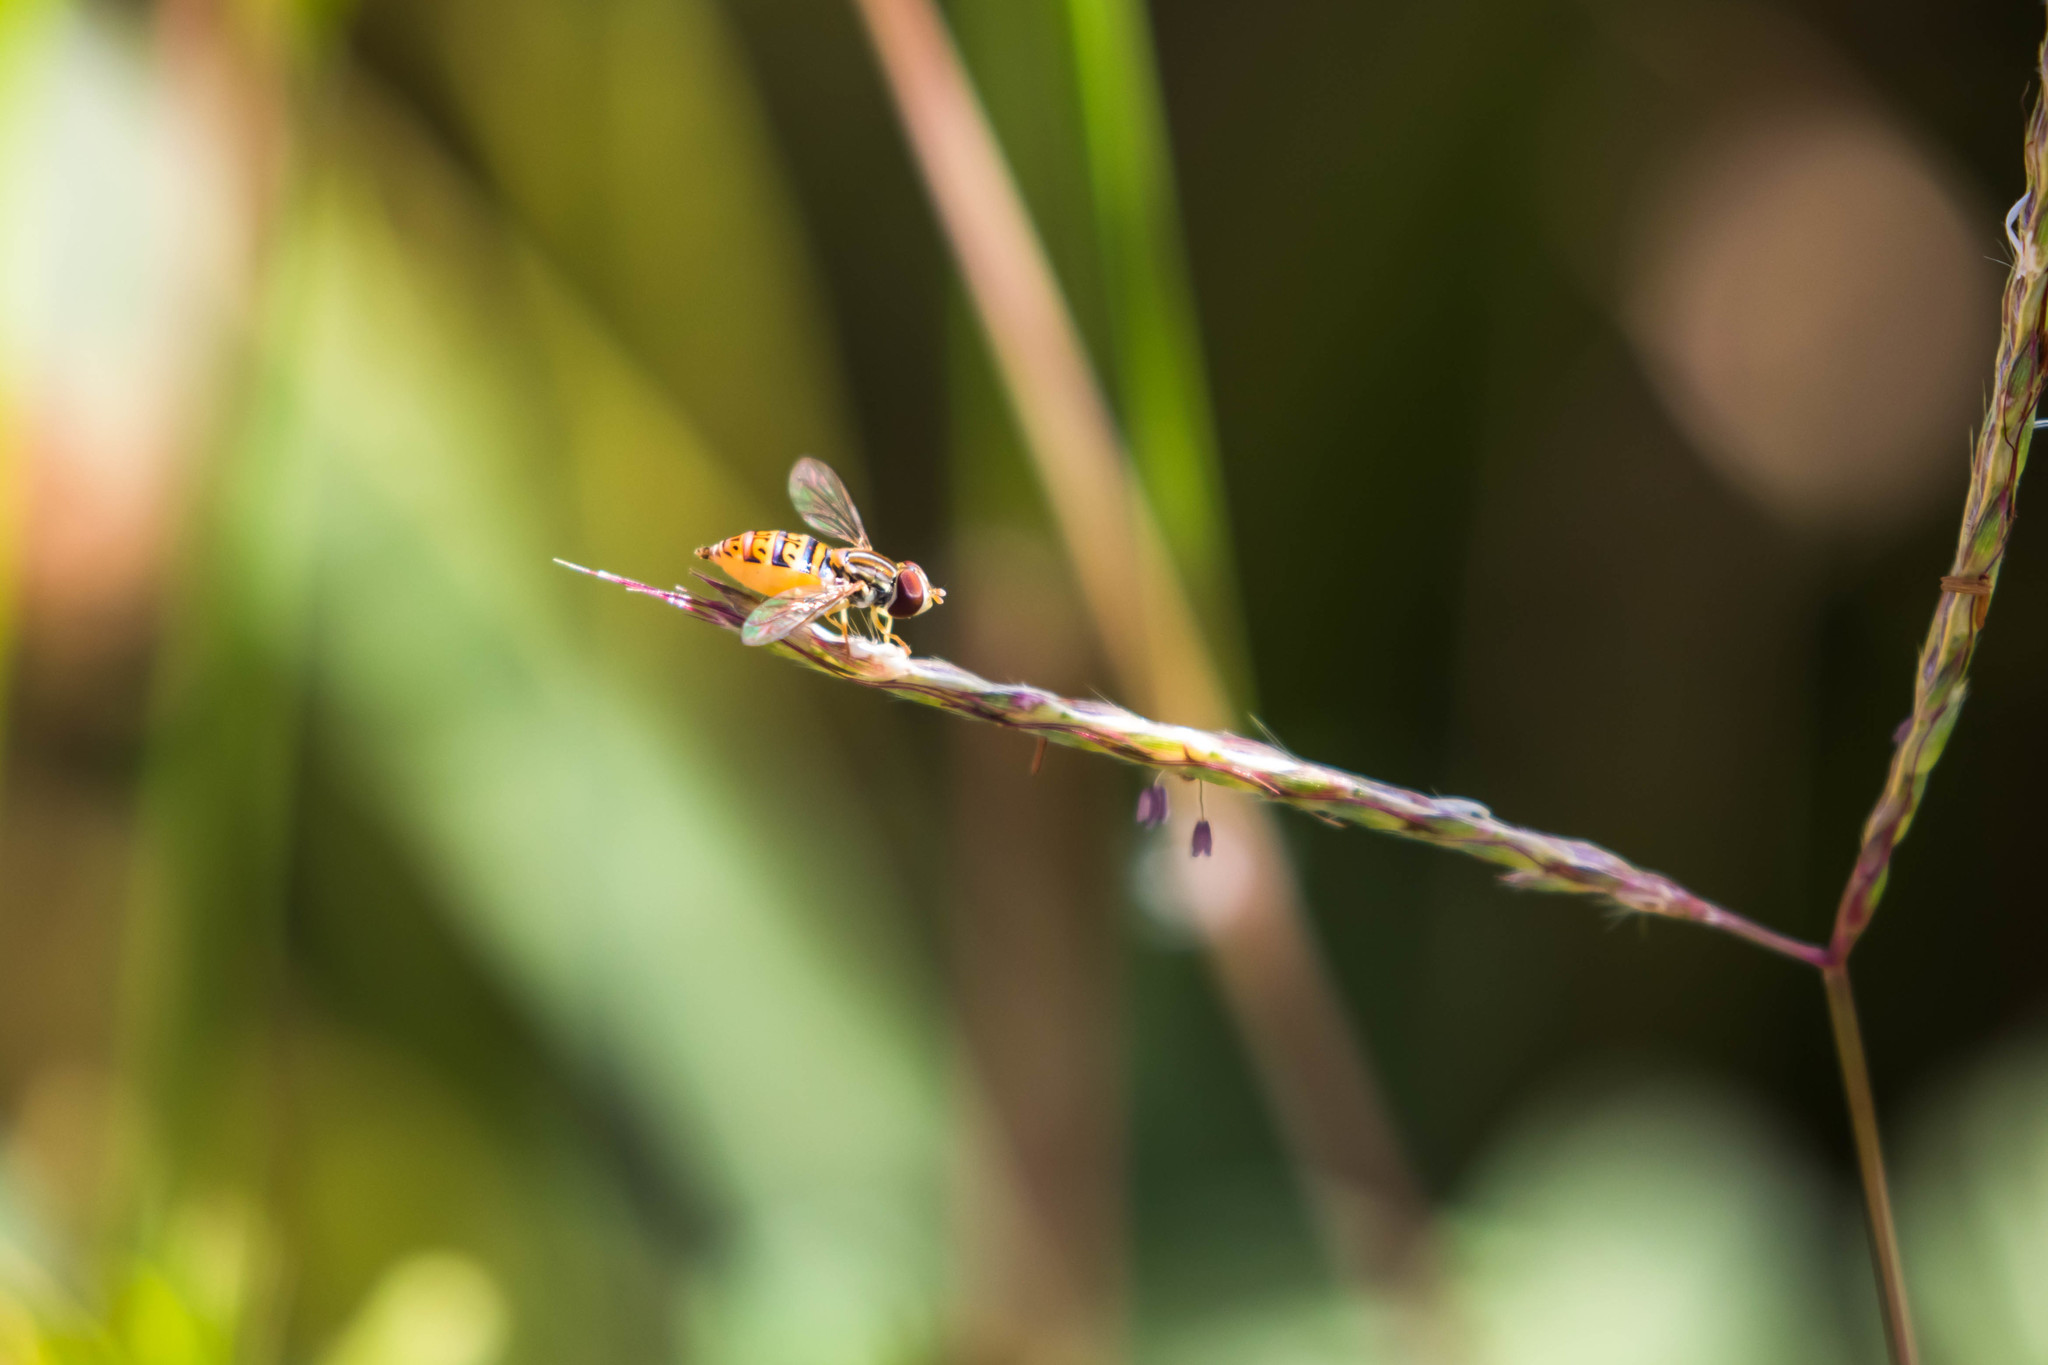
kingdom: Animalia
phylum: Arthropoda
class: Insecta
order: Diptera
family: Syrphidae
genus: Toxomerus
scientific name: Toxomerus pulchellus
